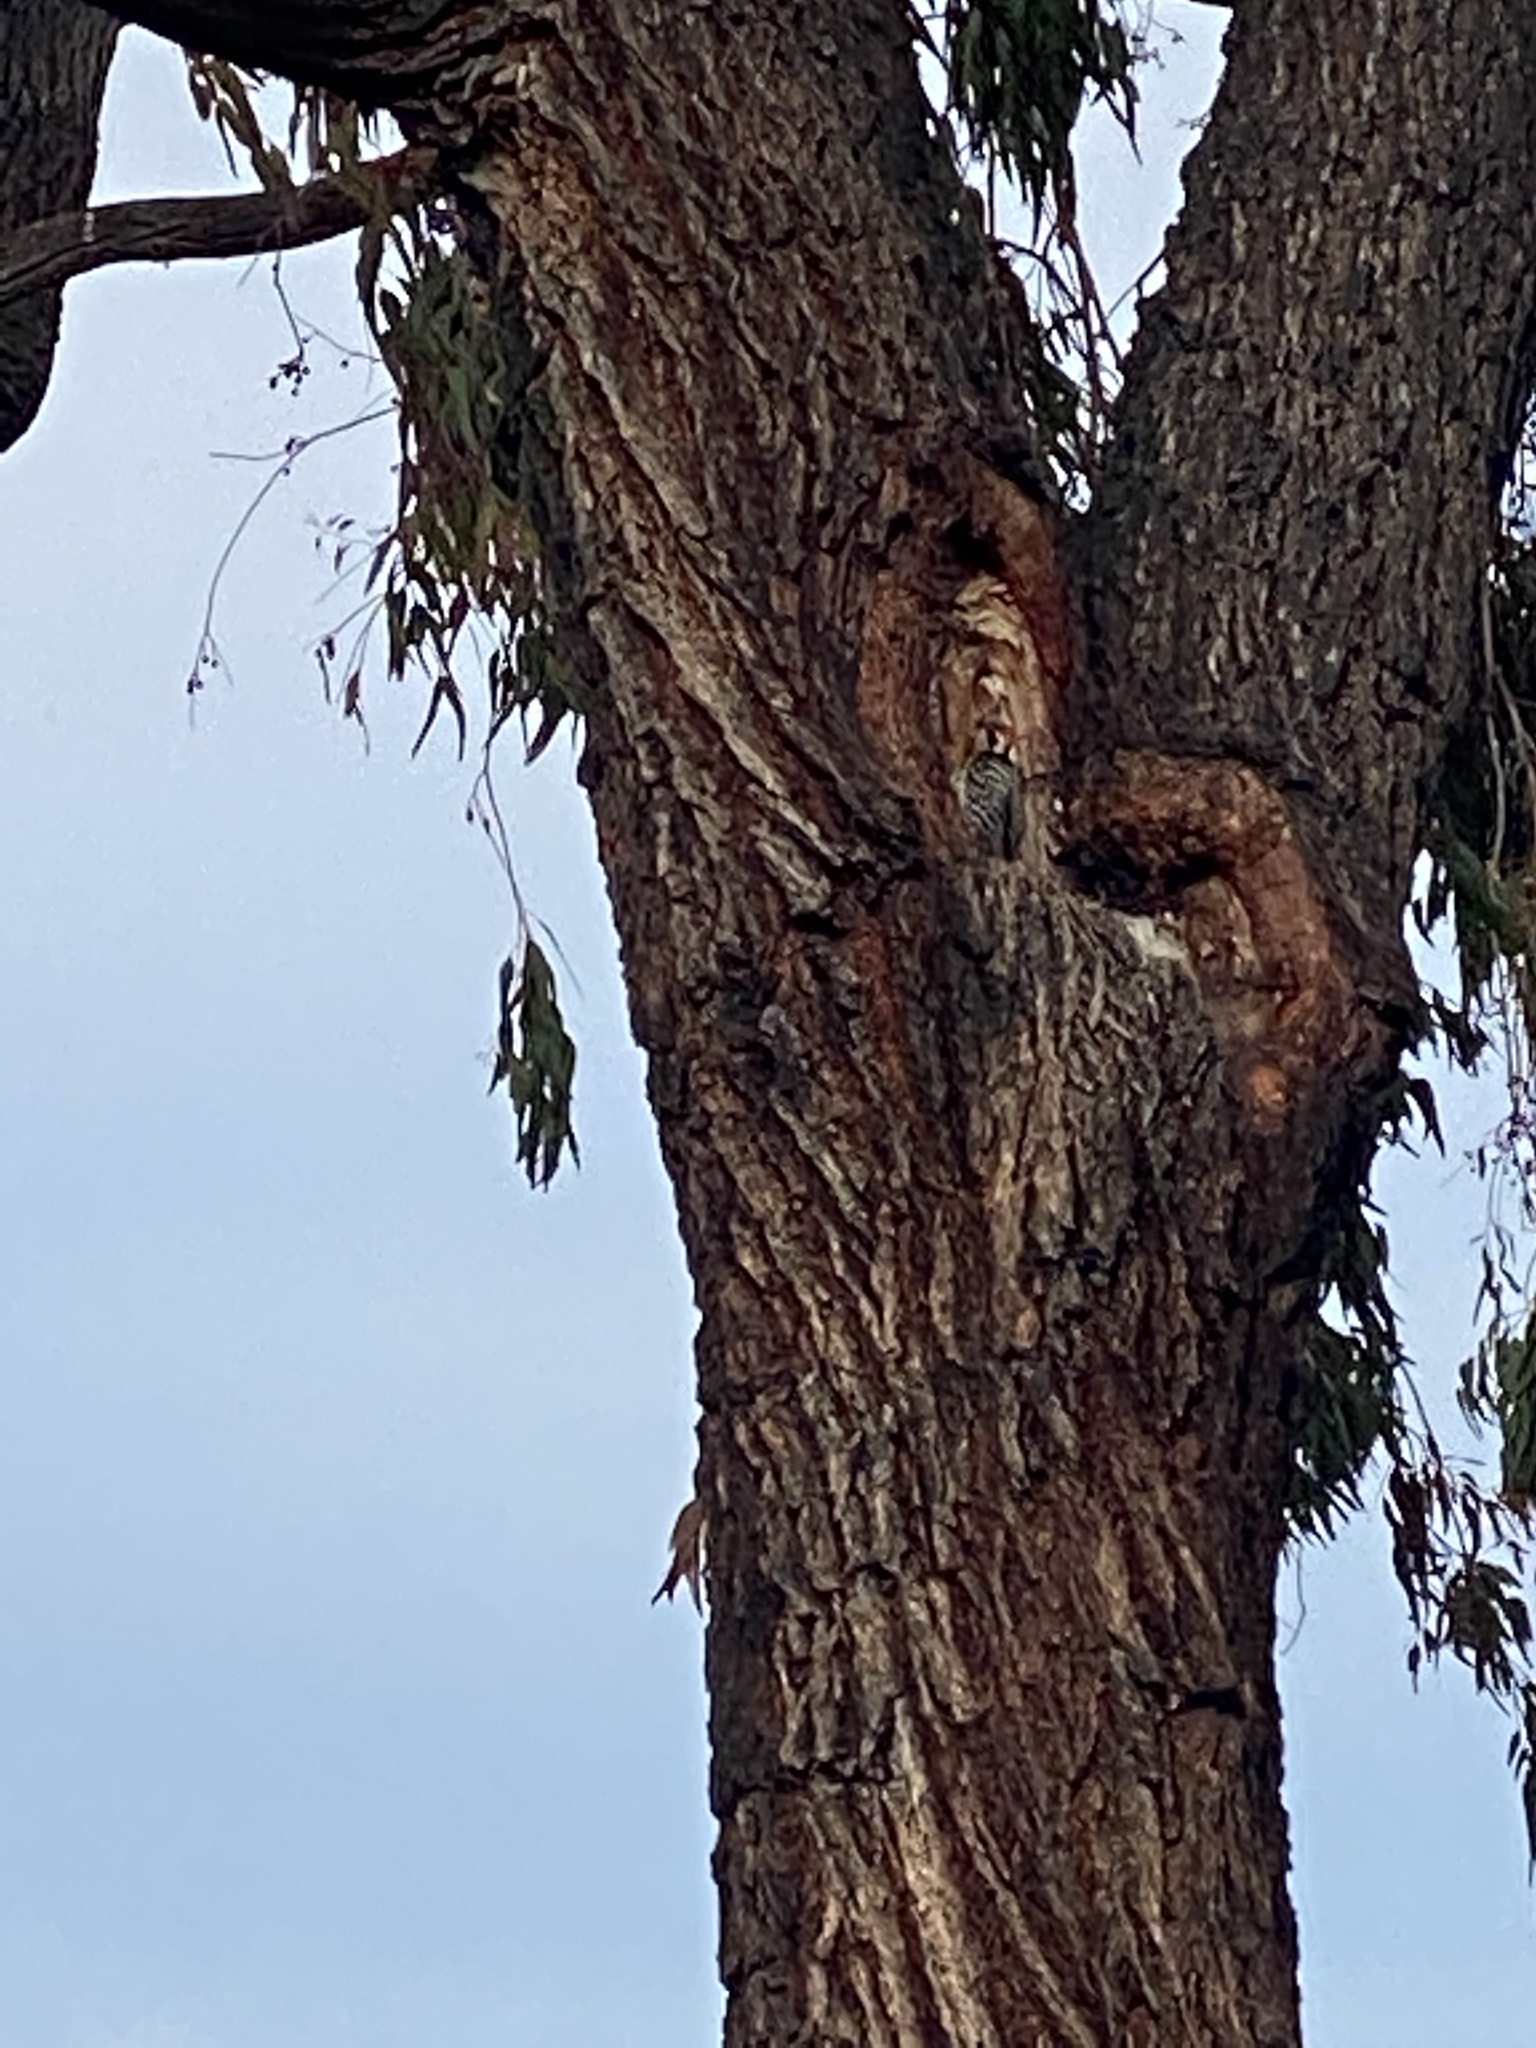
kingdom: Animalia
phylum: Chordata
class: Aves
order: Piciformes
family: Picidae
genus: Dryobates
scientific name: Dryobates nuttallii
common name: Nuttall's woodpecker
